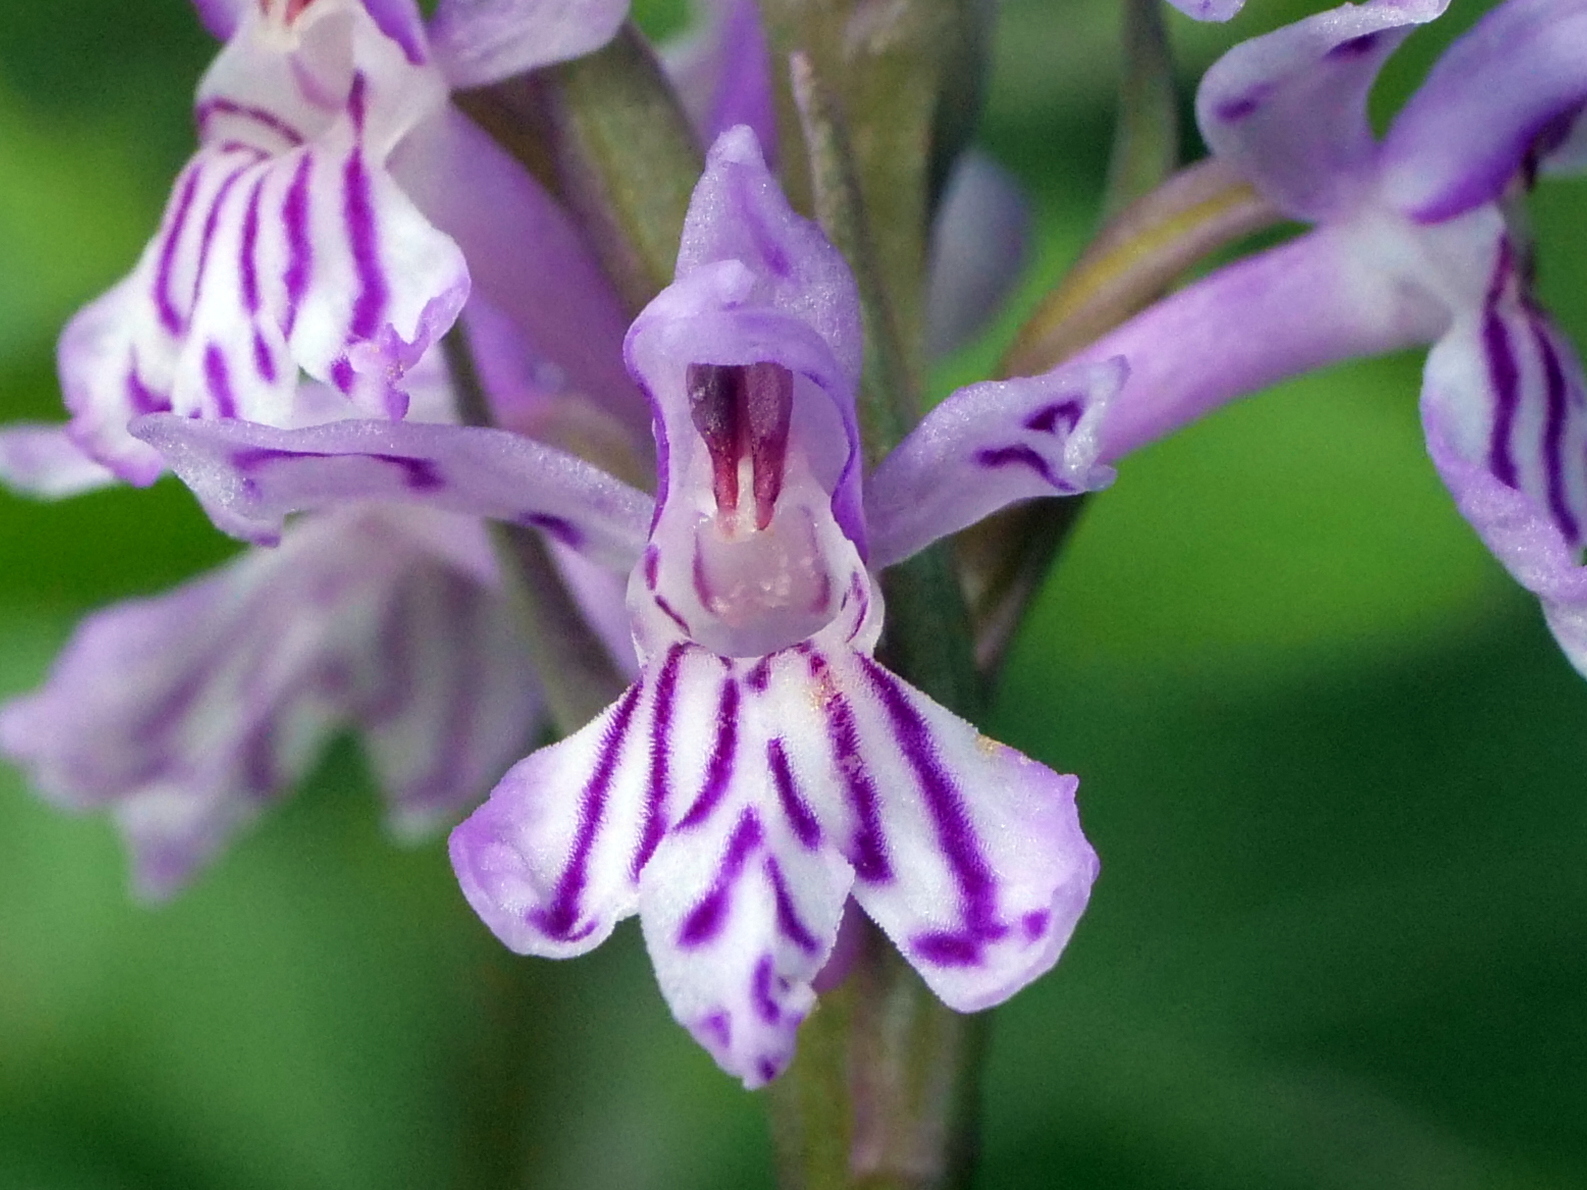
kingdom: Plantae
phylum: Tracheophyta
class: Liliopsida
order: Asparagales
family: Orchidaceae
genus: Dactylorhiza
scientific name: Dactylorhiza maculata
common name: Heath spotted-orchid
